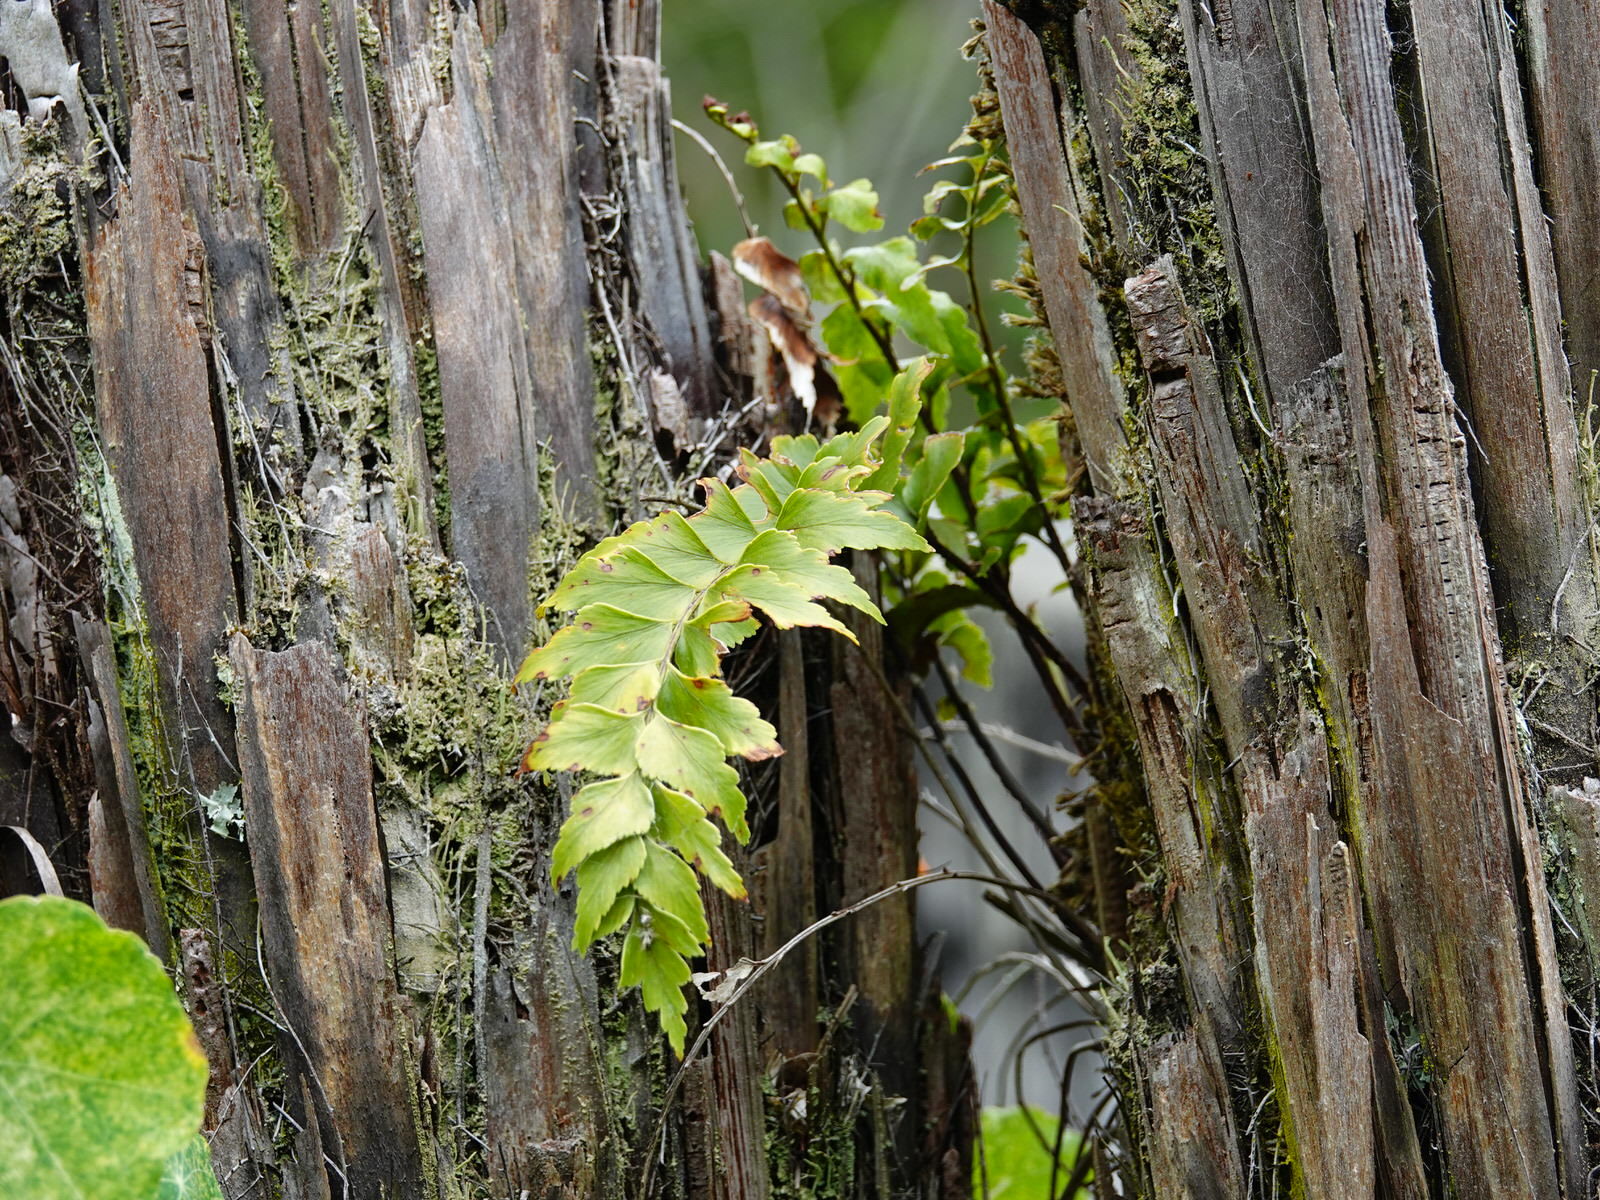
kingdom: Plantae
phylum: Tracheophyta
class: Polypodiopsida
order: Polypodiales
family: Aspleniaceae
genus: Asplenium
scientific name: Asplenium polyodon
